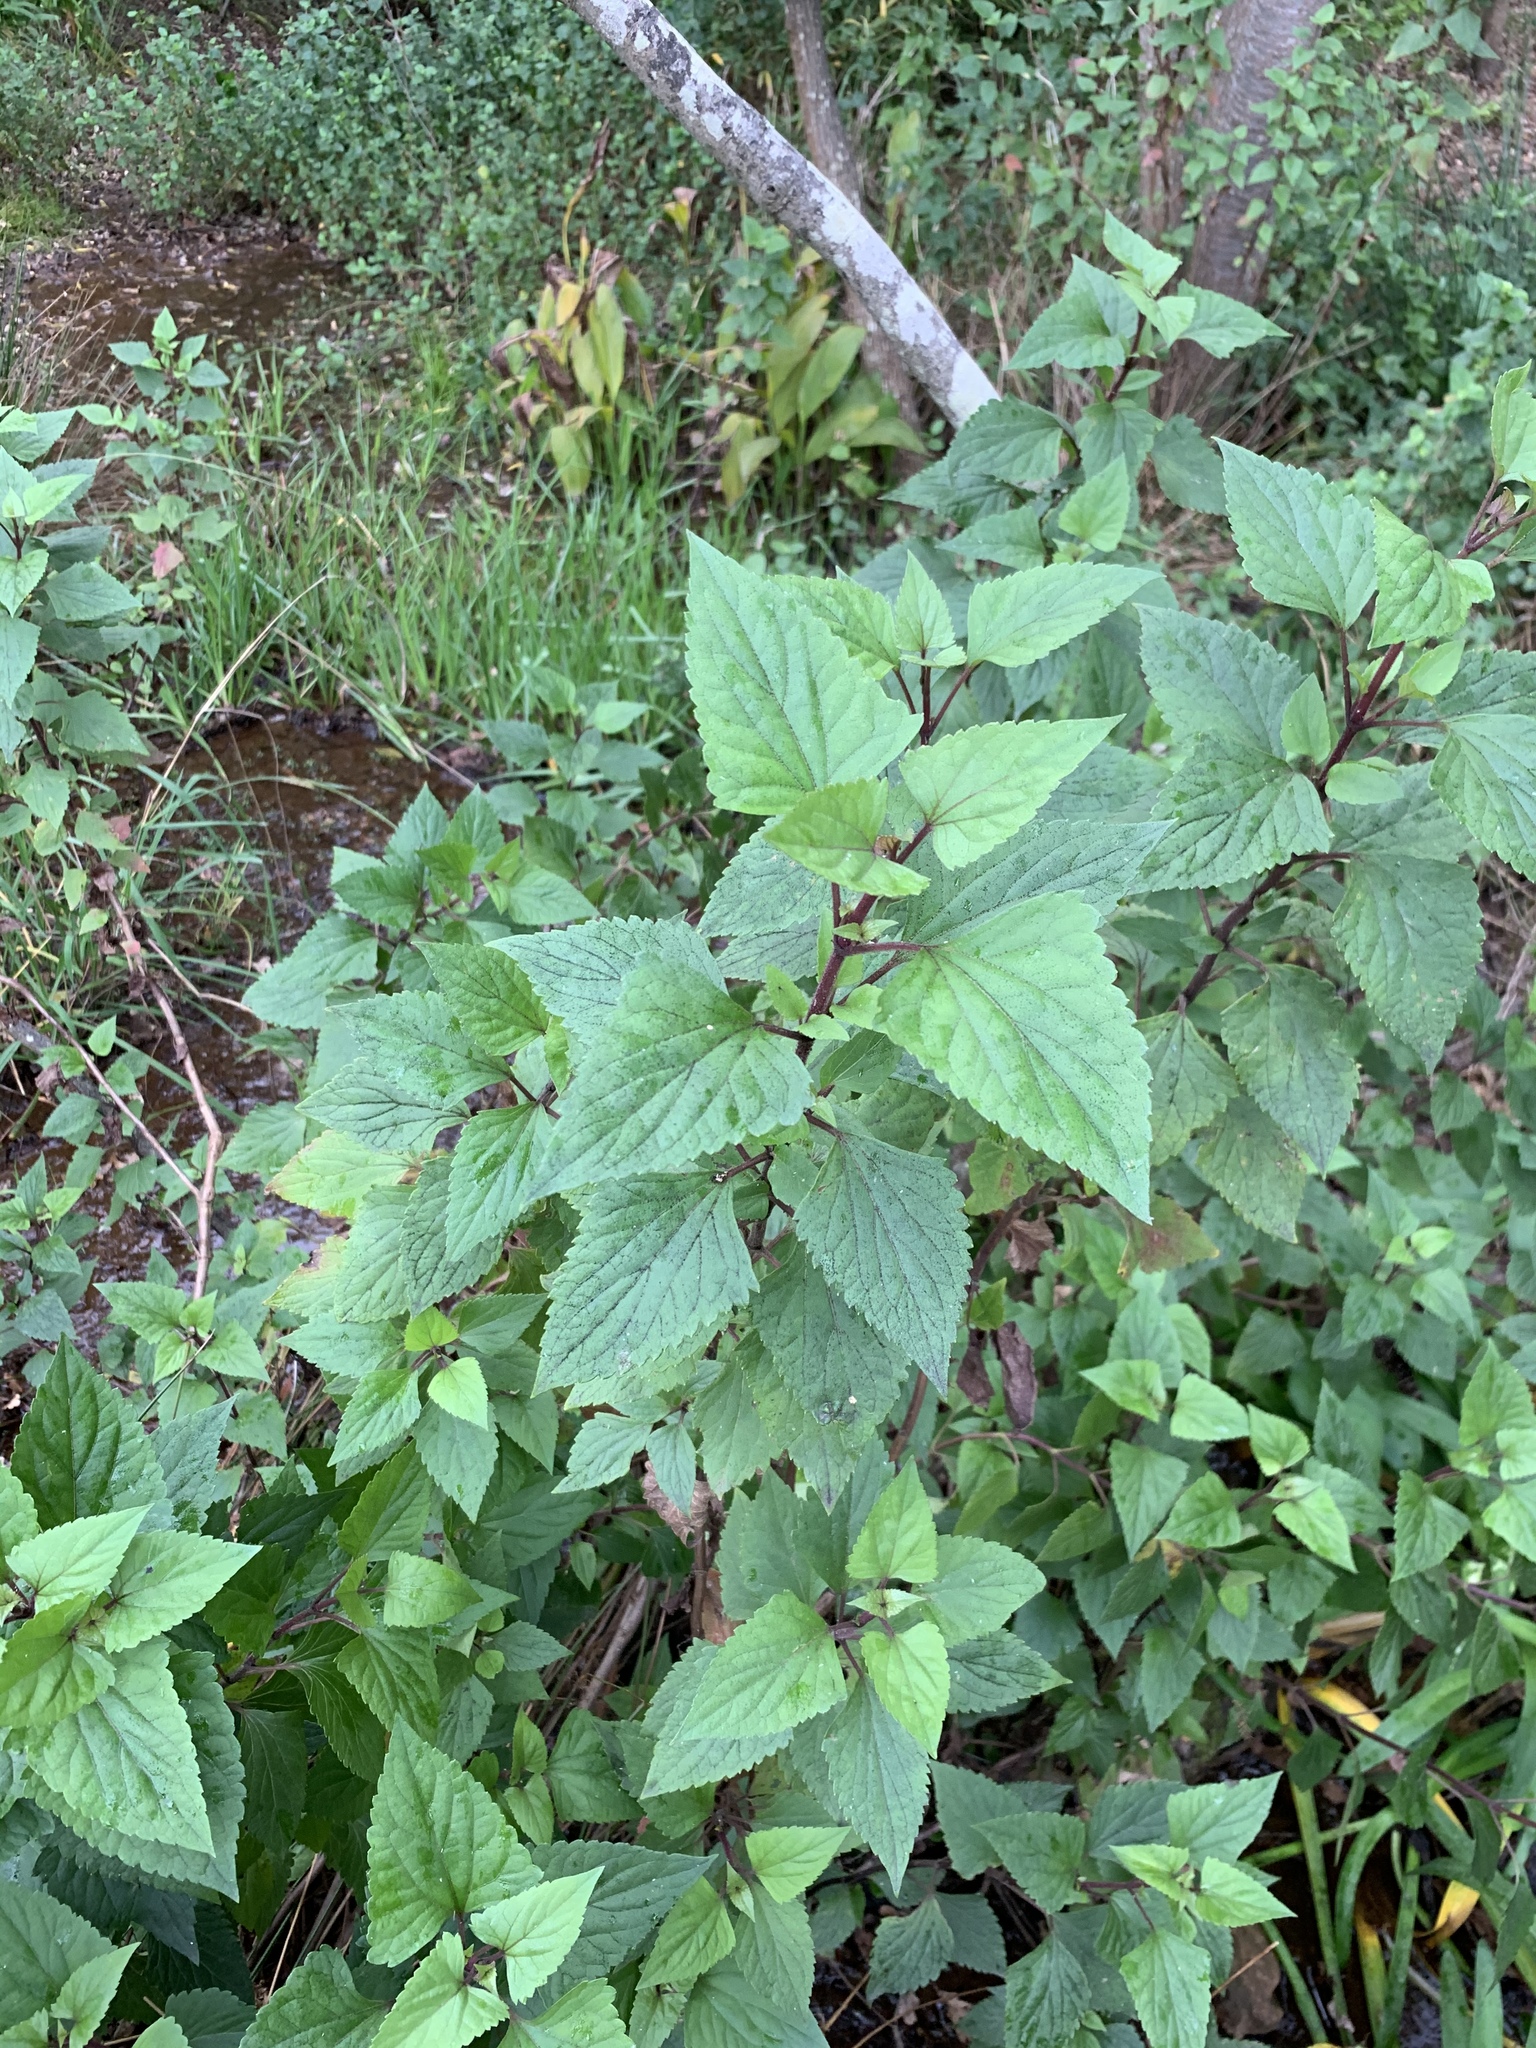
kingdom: Plantae
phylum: Tracheophyta
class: Magnoliopsida
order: Asterales
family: Asteraceae
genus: Ageratina
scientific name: Ageratina adenophora
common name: Sticky snakeroot
